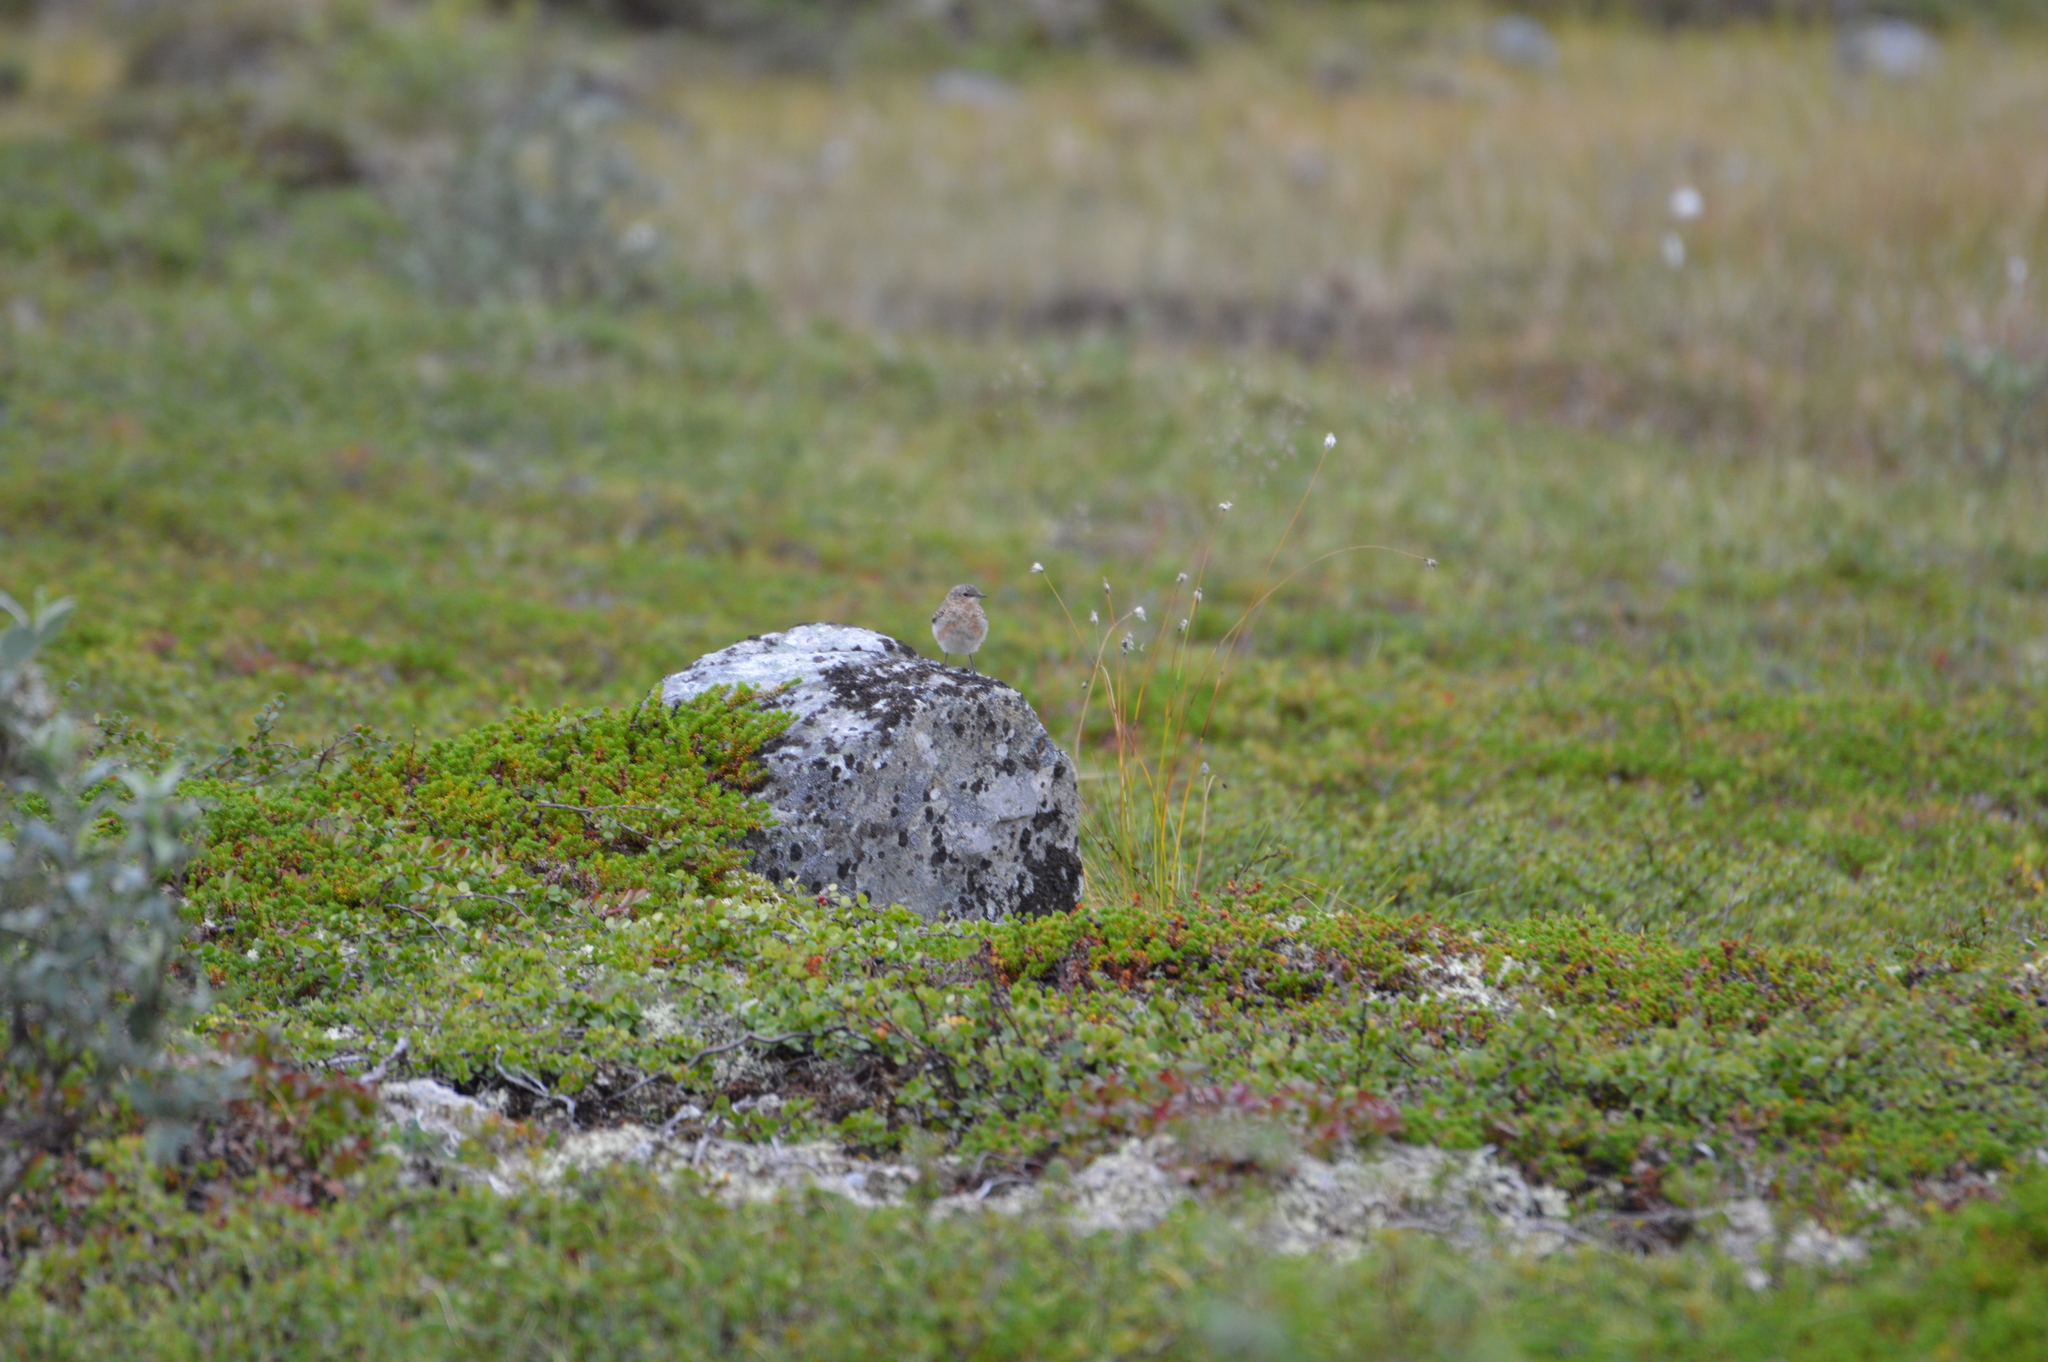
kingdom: Animalia
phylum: Chordata
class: Aves
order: Passeriformes
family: Muscicapidae
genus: Oenanthe
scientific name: Oenanthe oenanthe
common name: Northern wheatear
